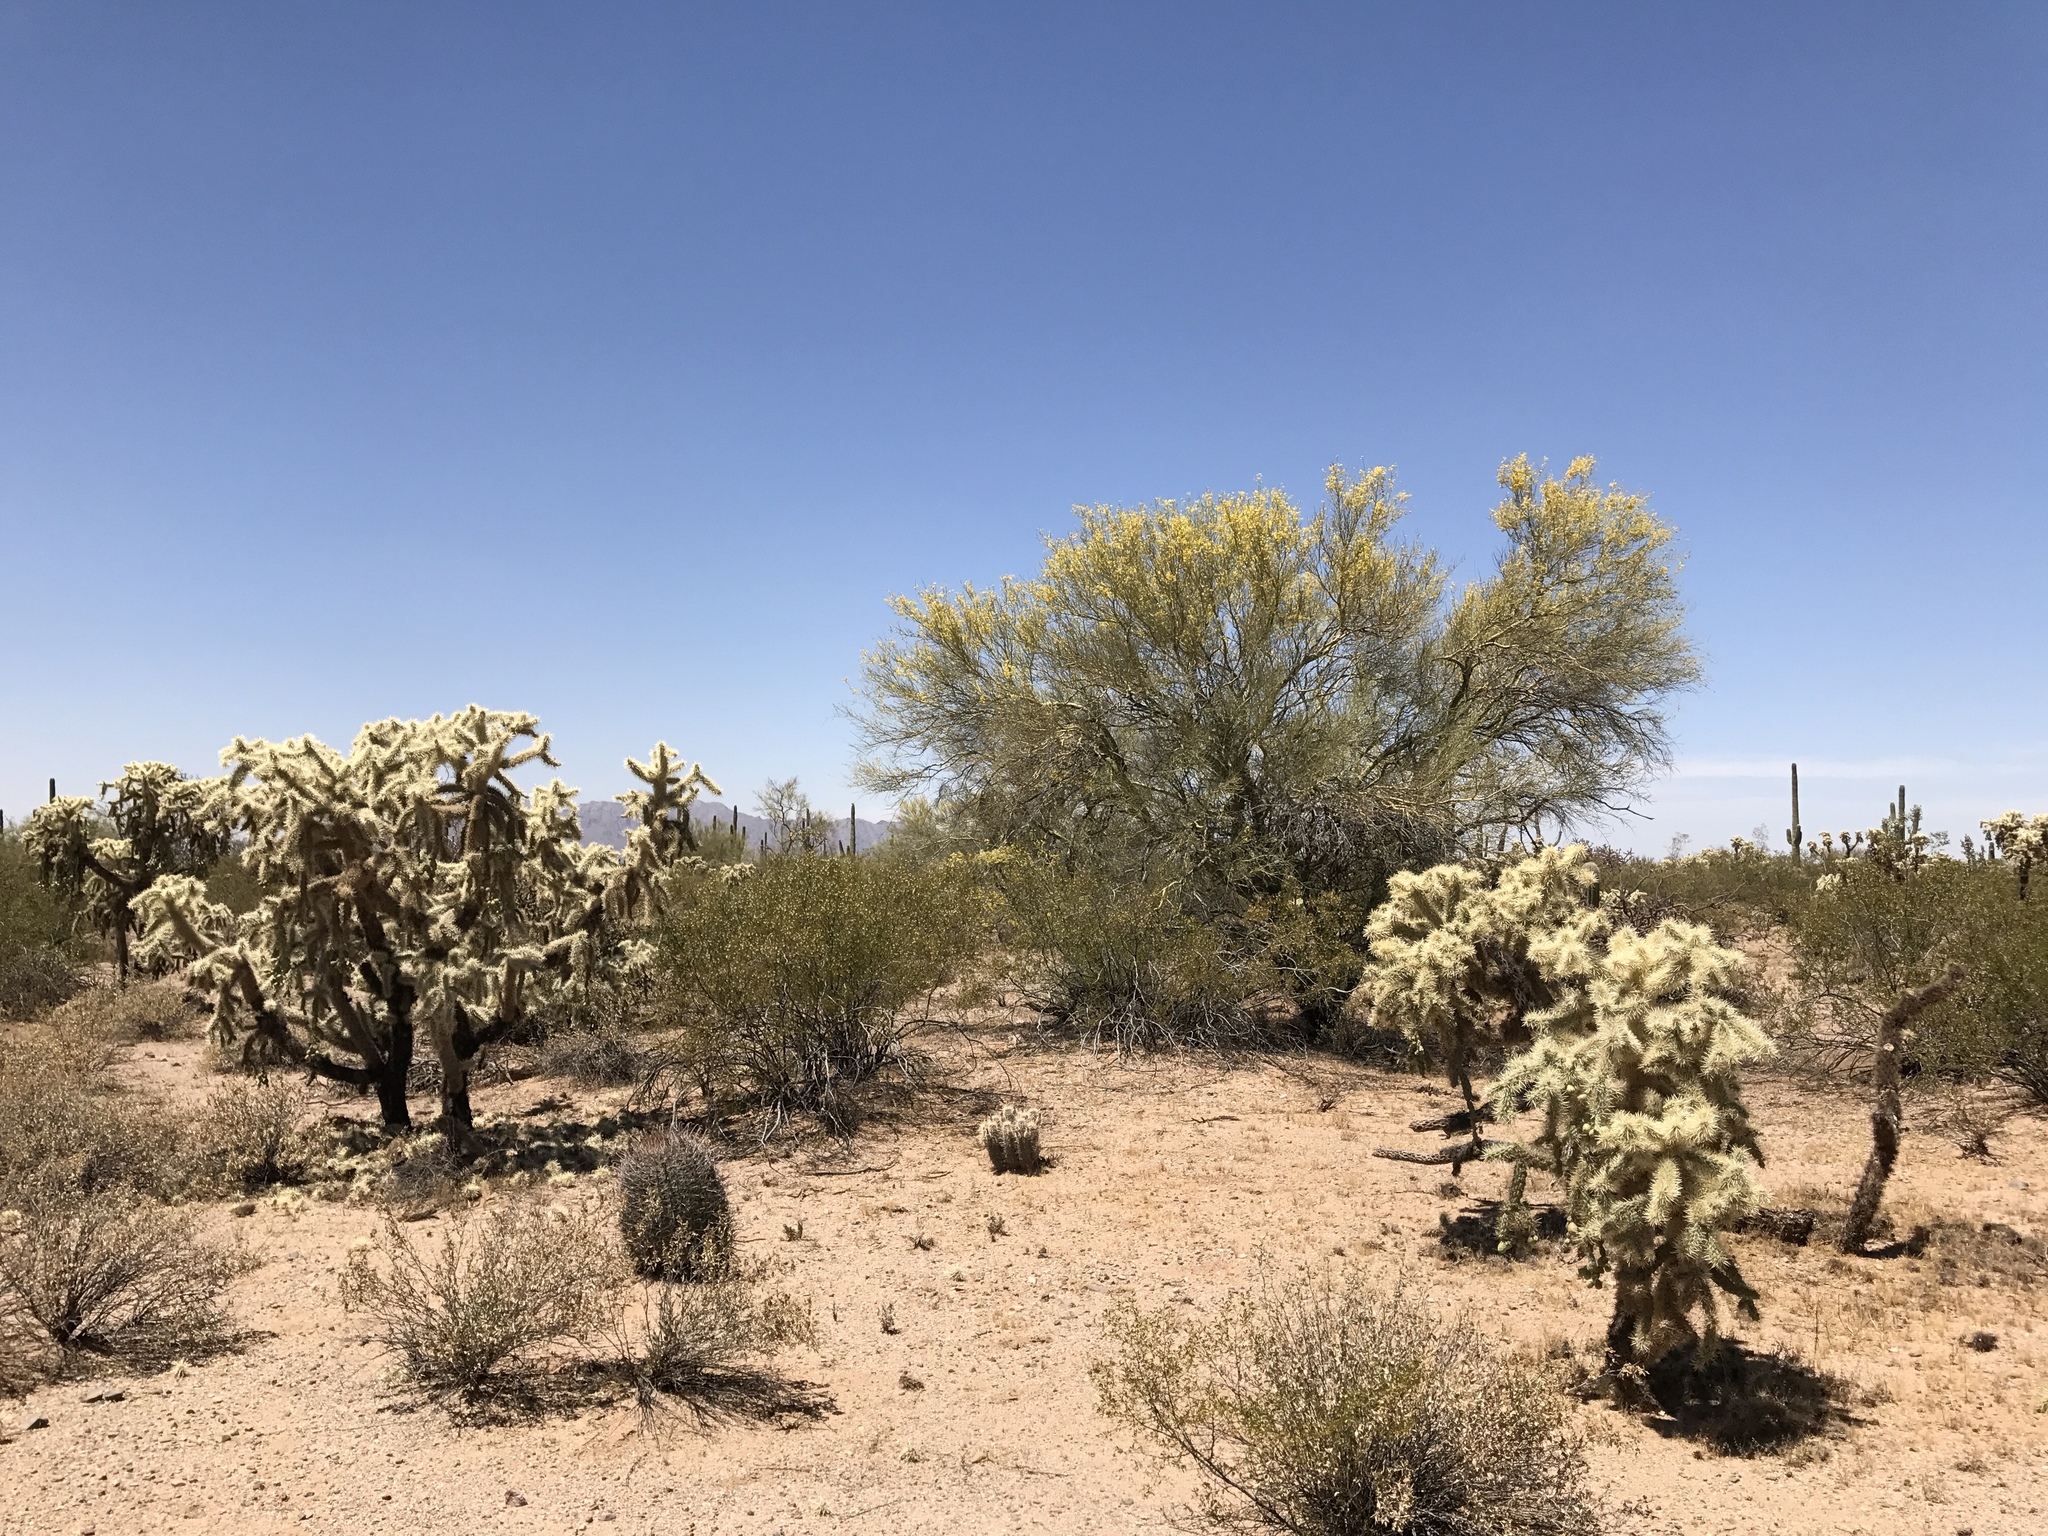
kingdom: Plantae
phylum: Tracheophyta
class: Magnoliopsida
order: Caryophyllales
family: Cactaceae
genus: Cylindropuntia
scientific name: Cylindropuntia fulgida
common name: Jumping cholla
